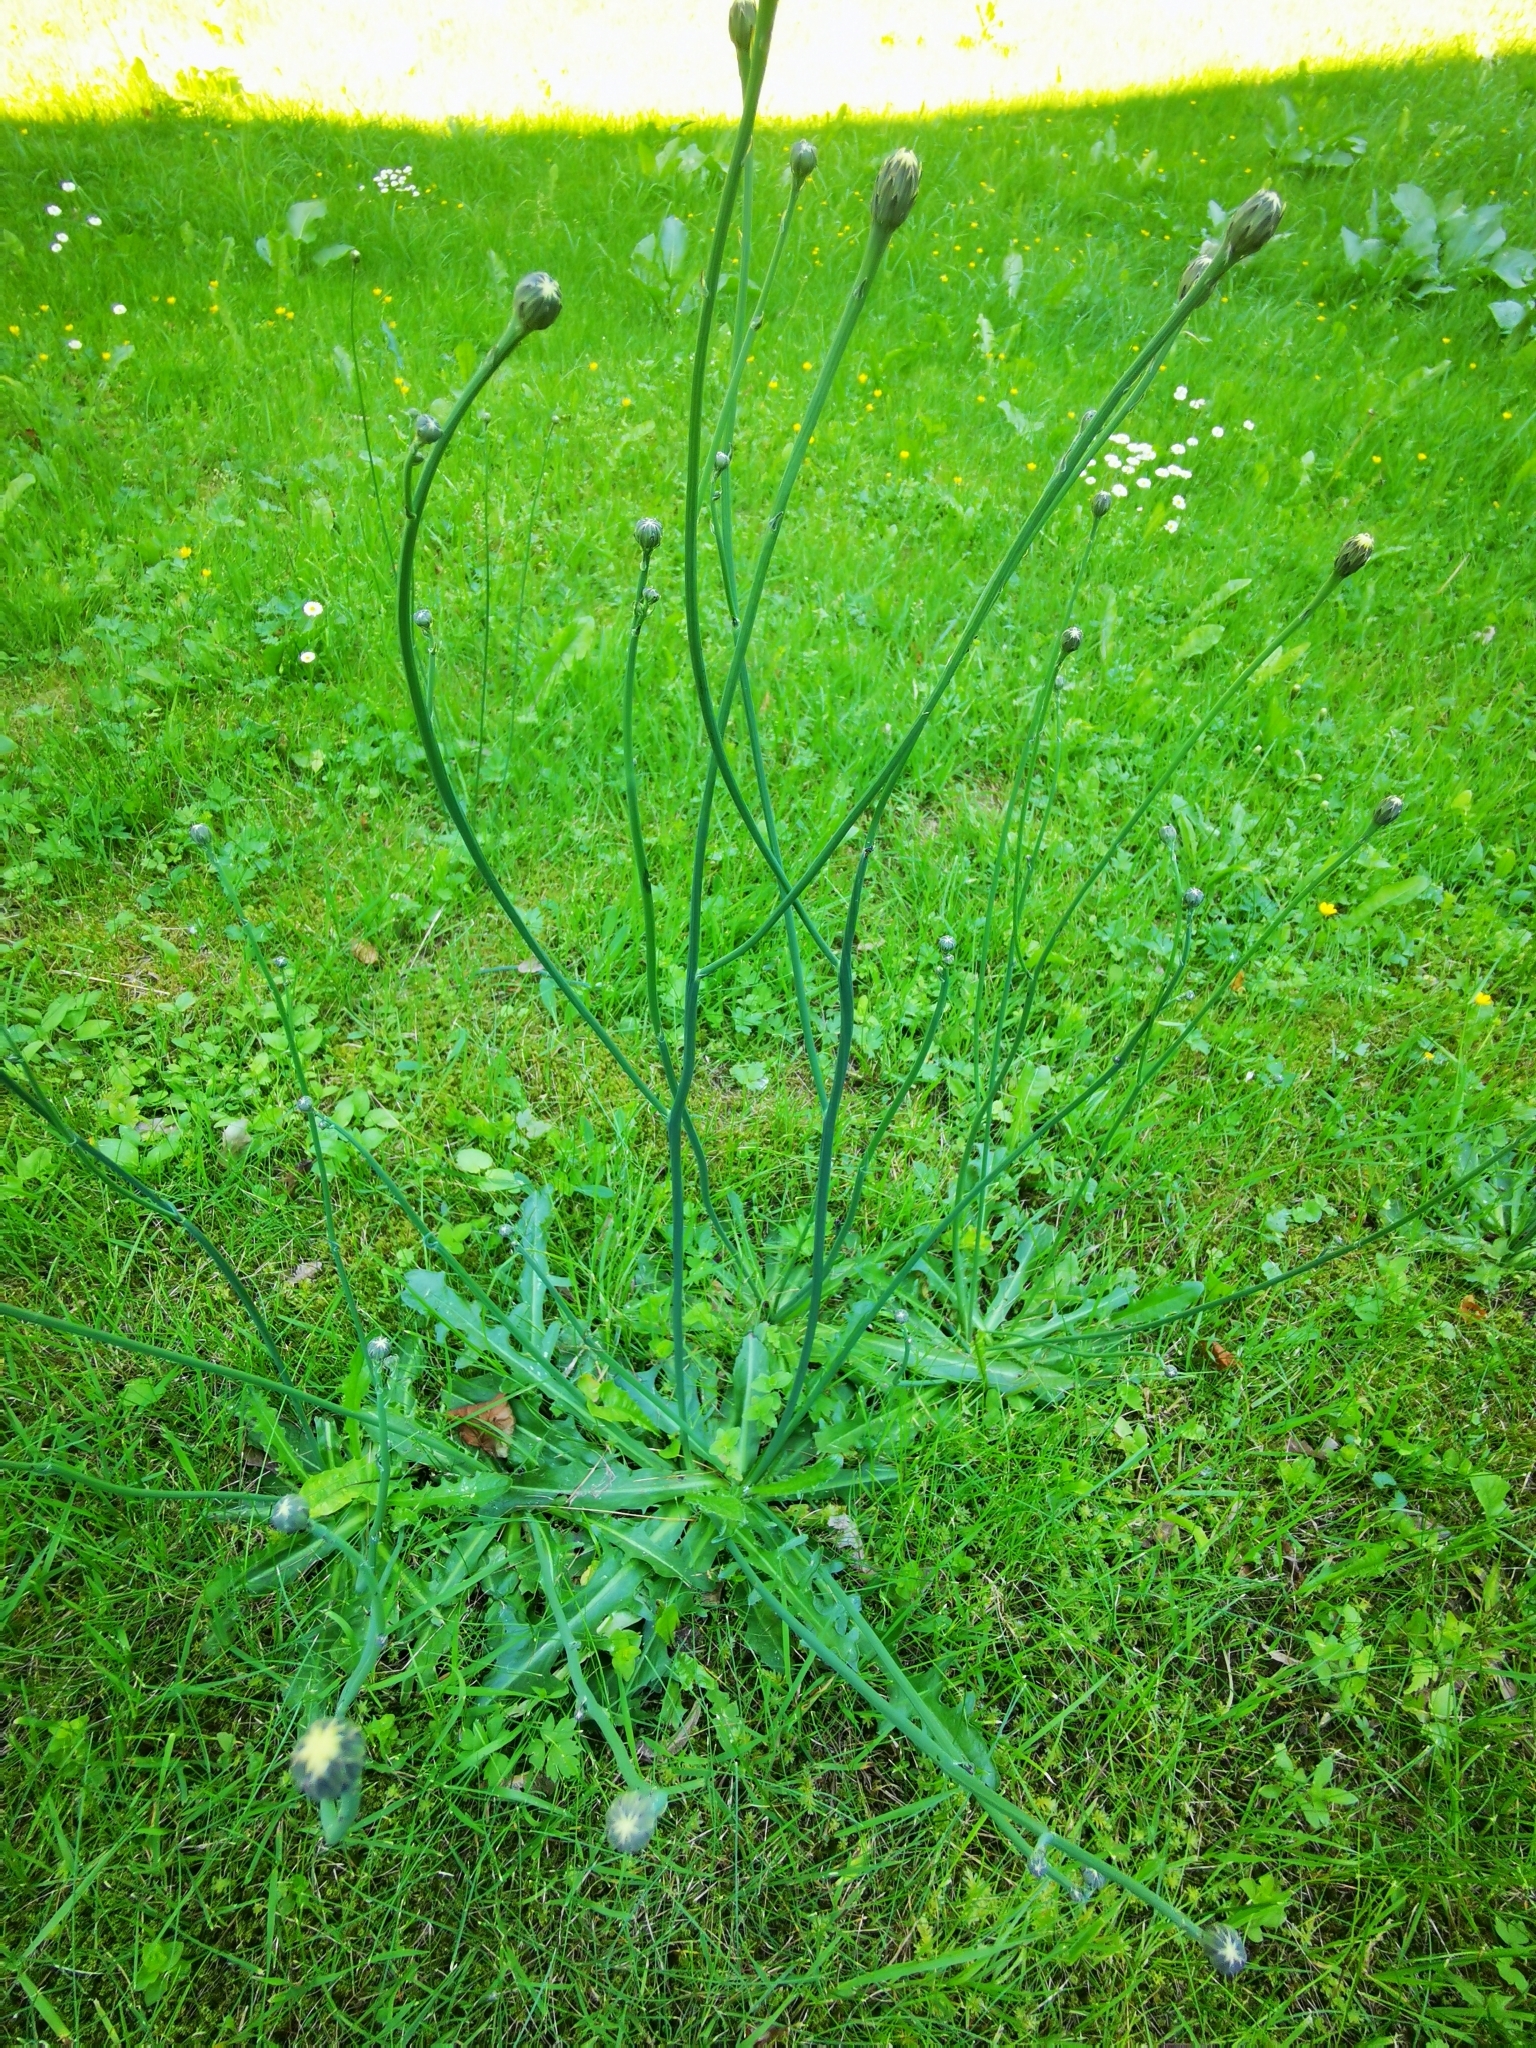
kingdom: Plantae
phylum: Tracheophyta
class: Magnoliopsida
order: Asterales
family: Asteraceae
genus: Hypochaeris
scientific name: Hypochaeris radicata
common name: Flatweed
